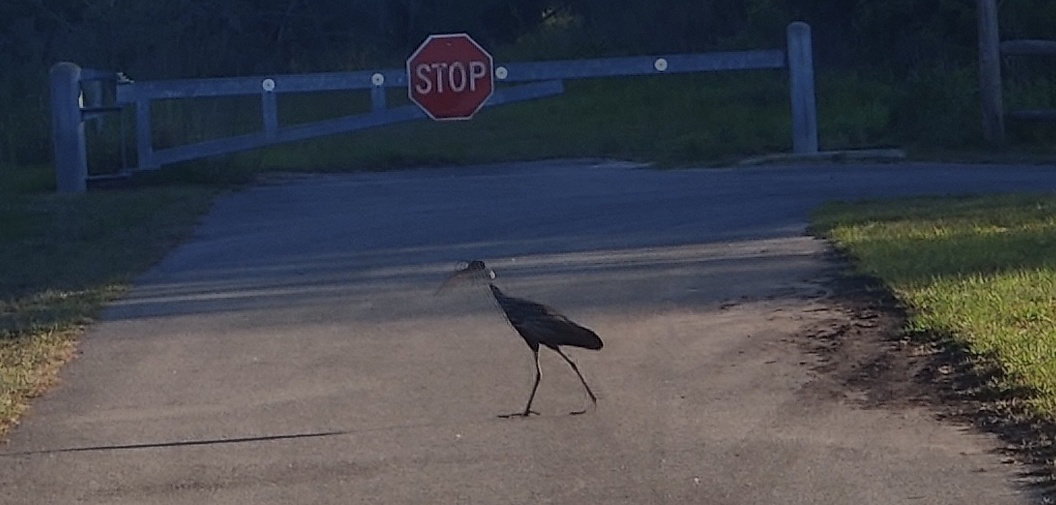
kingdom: Animalia
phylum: Chordata
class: Aves
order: Gruiformes
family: Aramidae
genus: Aramus
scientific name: Aramus guarauna
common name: Limpkin
